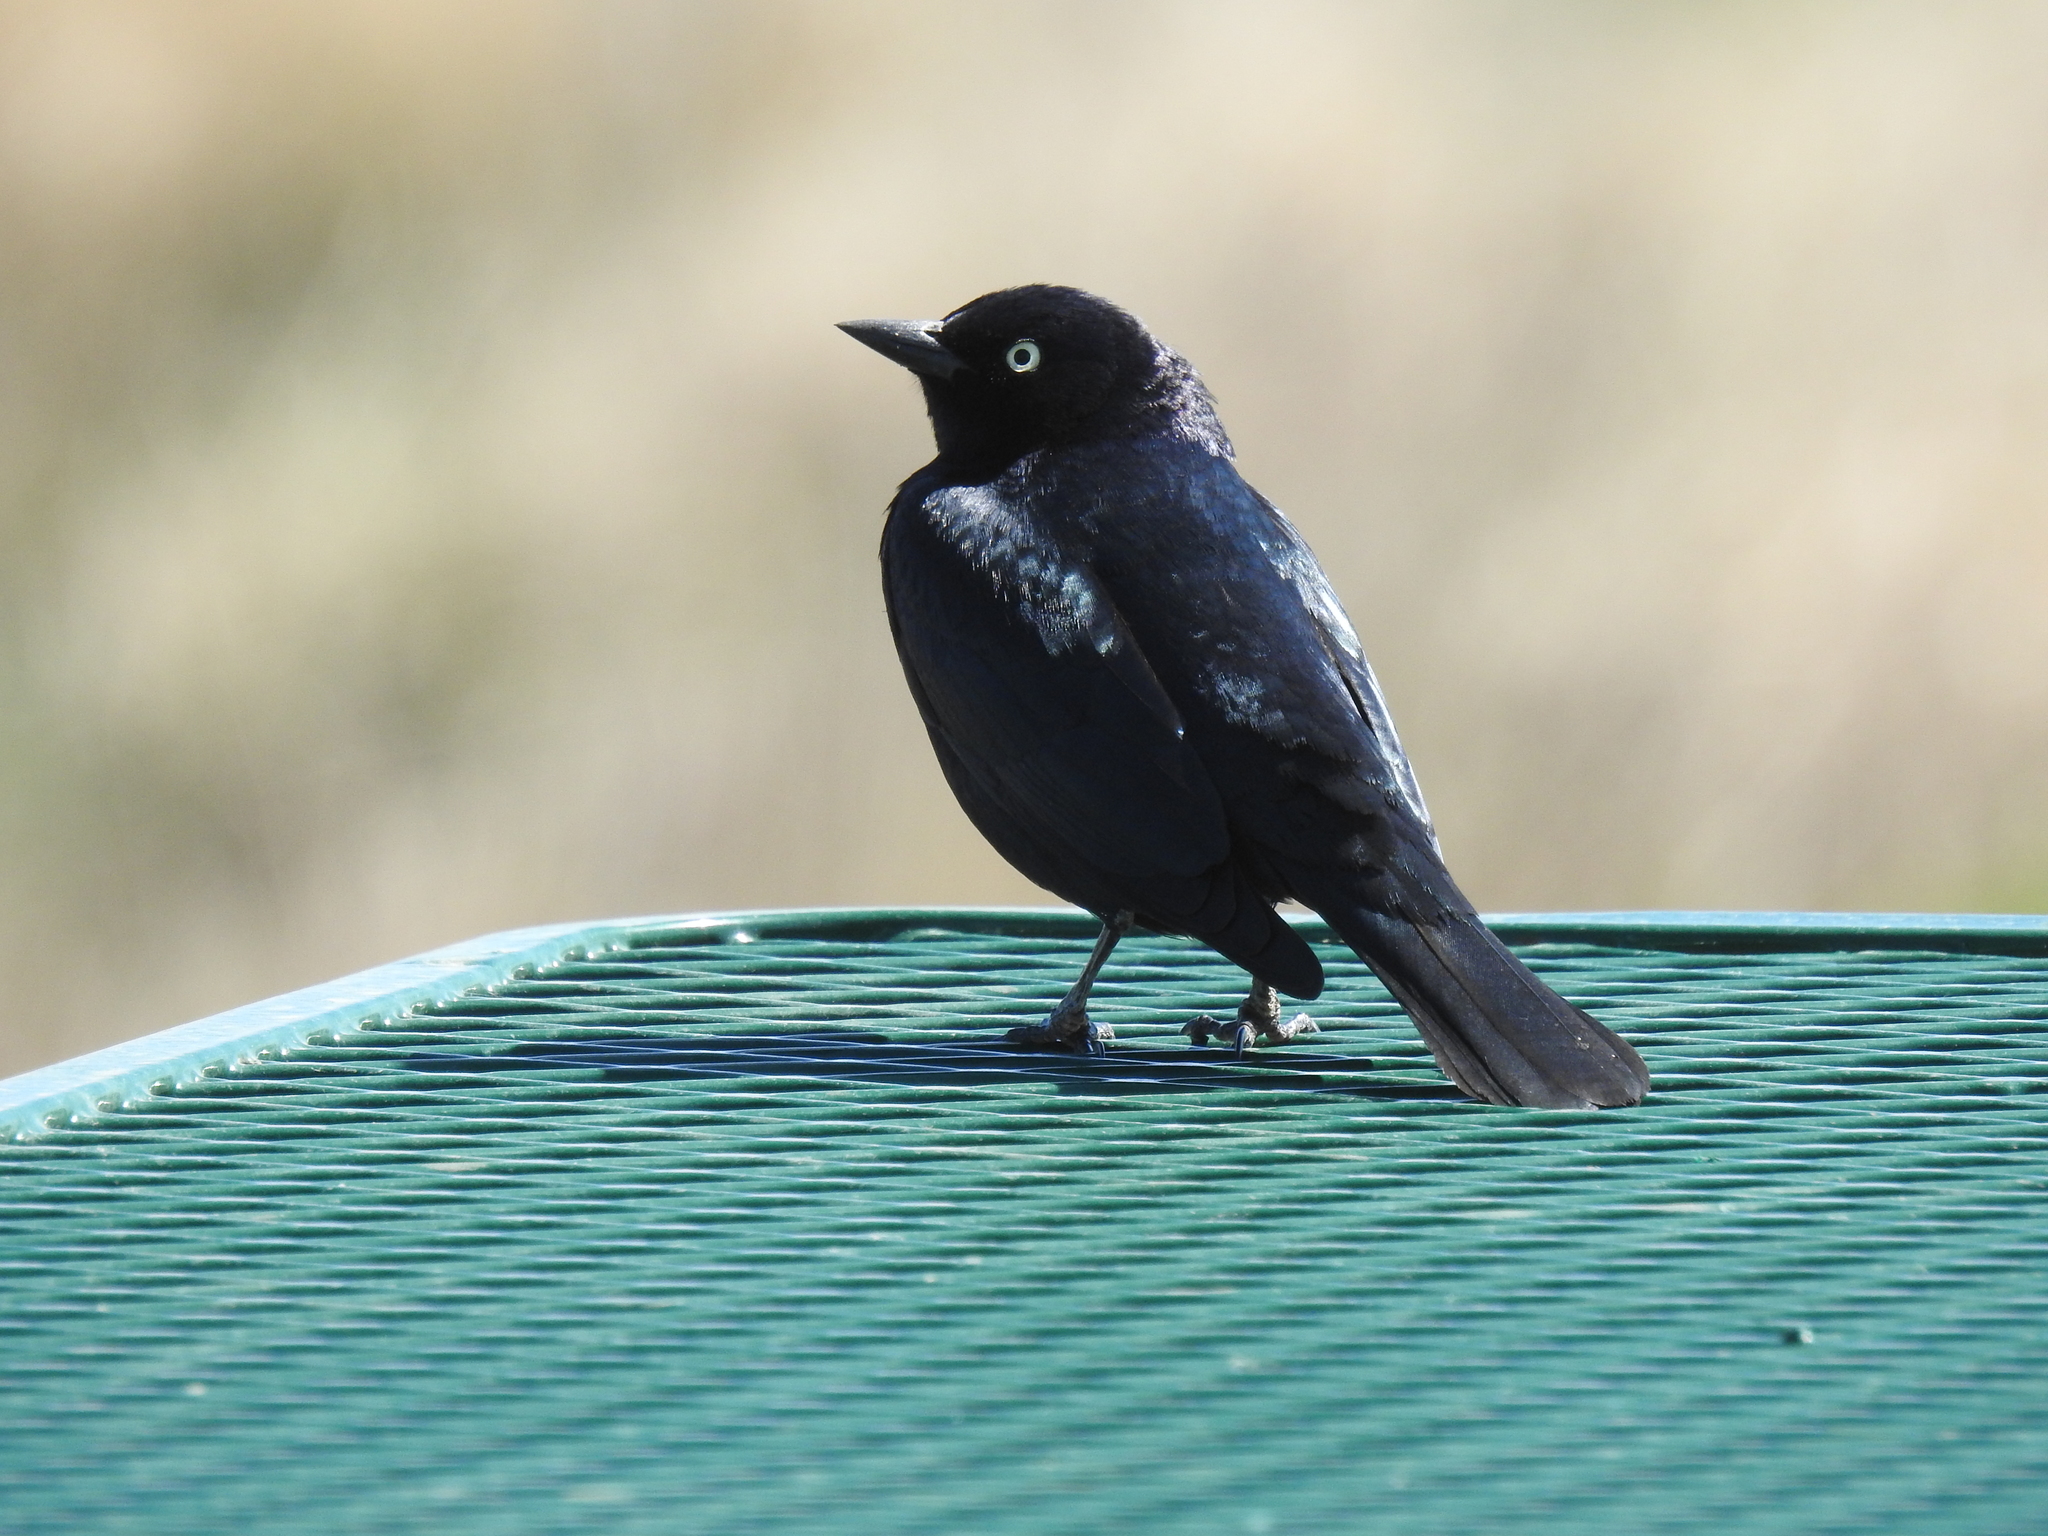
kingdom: Animalia
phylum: Chordata
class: Aves
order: Passeriformes
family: Icteridae
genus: Euphagus
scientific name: Euphagus cyanocephalus
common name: Brewer's blackbird
